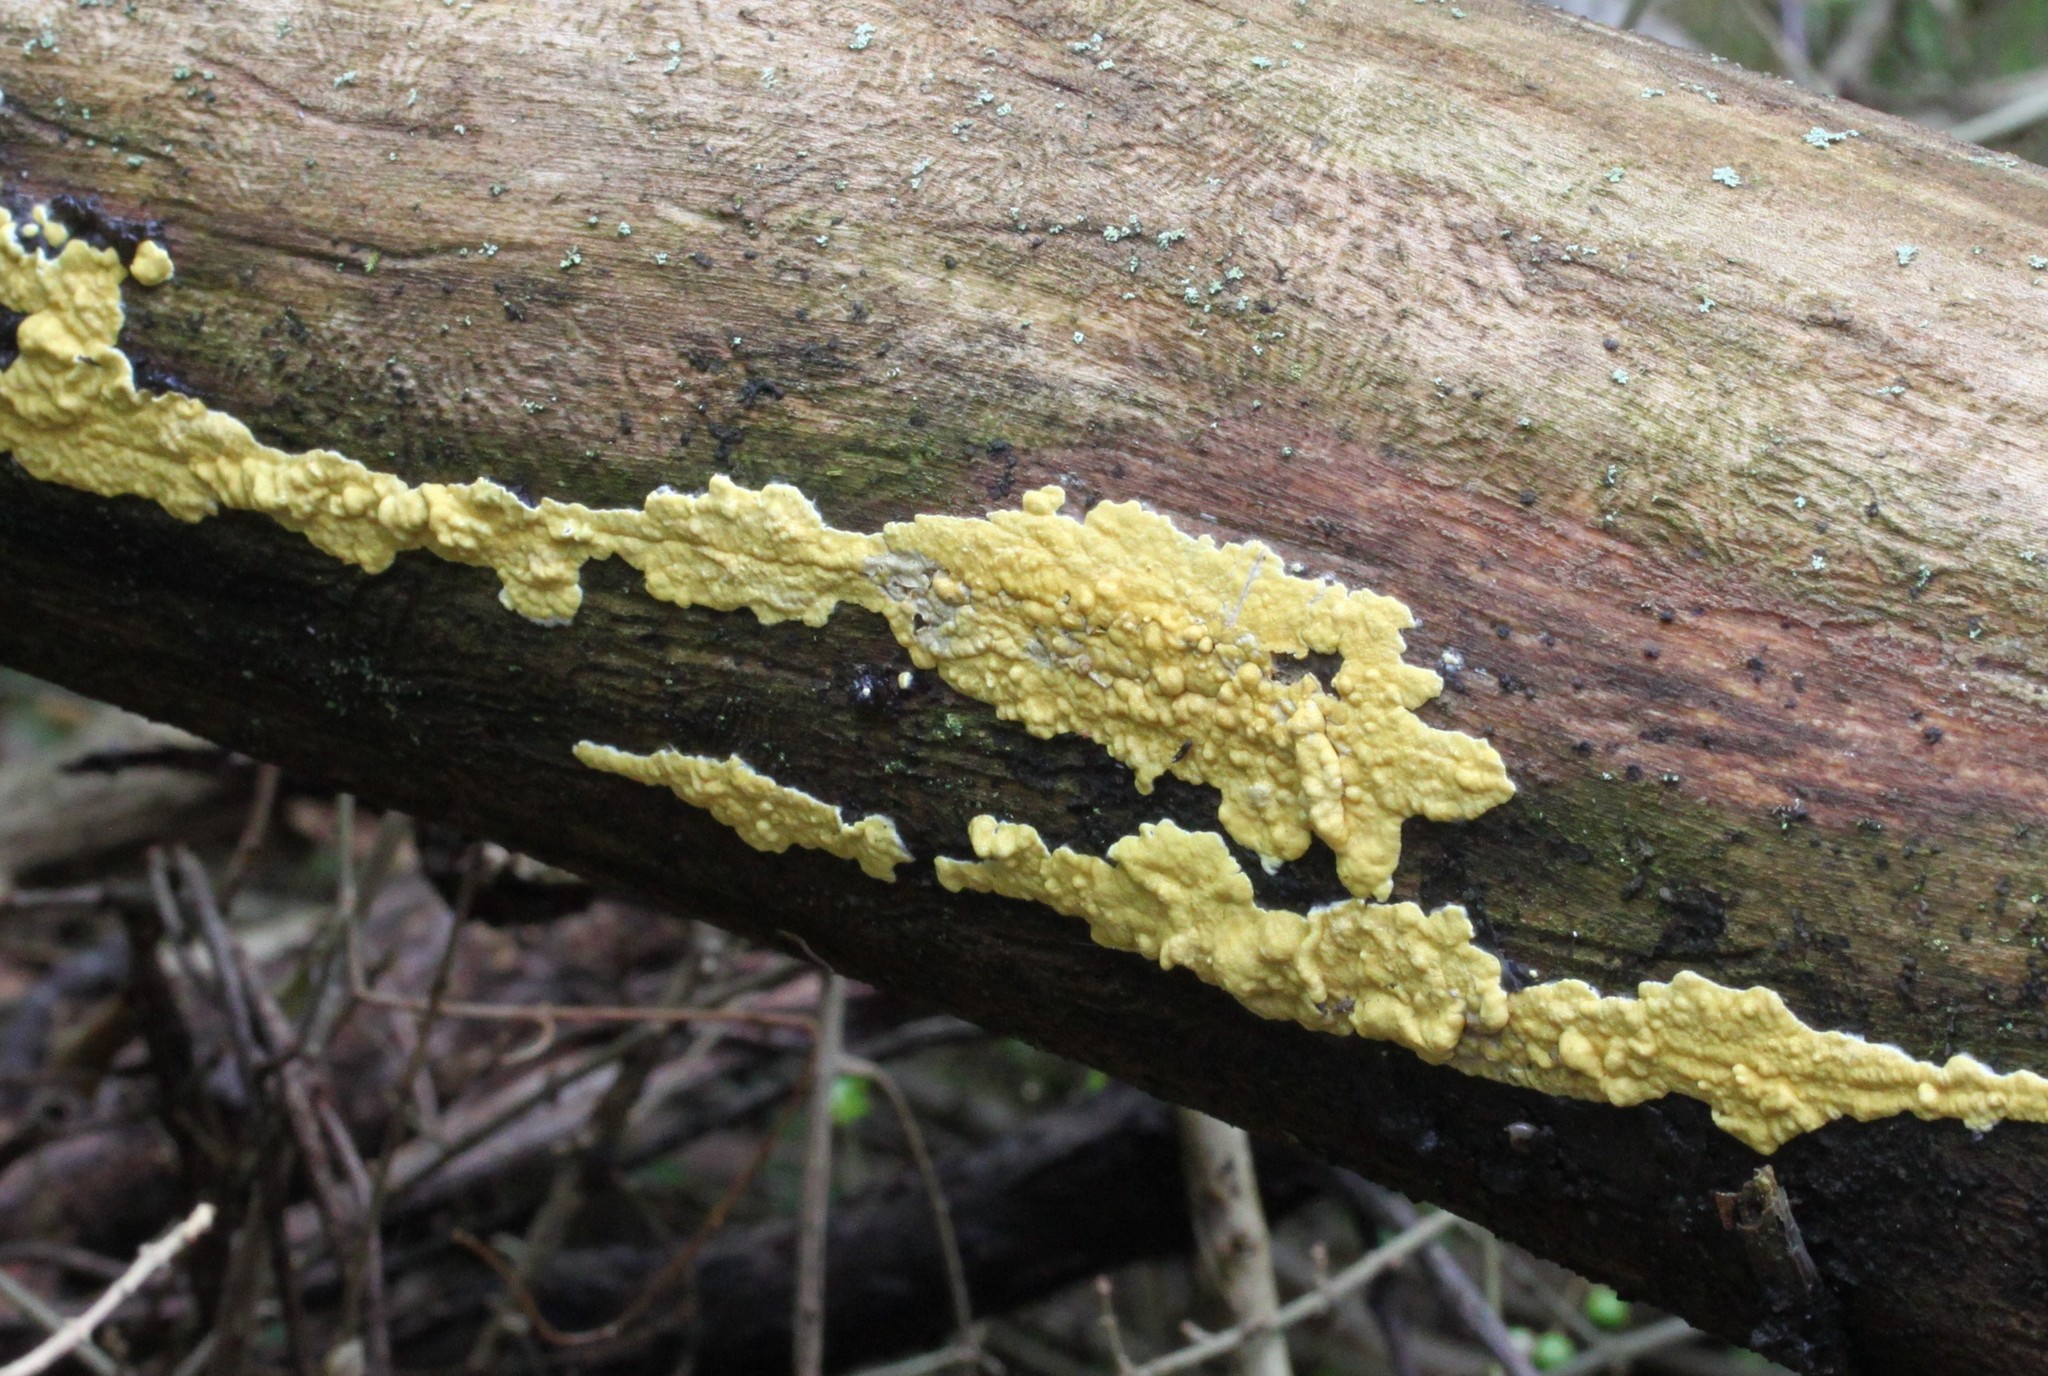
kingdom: Fungi
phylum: Ascomycota
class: Sordariomycetes
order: Hypocreales
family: Hypocreaceae
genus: Trichoderma
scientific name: Trichoderma sulphureum
